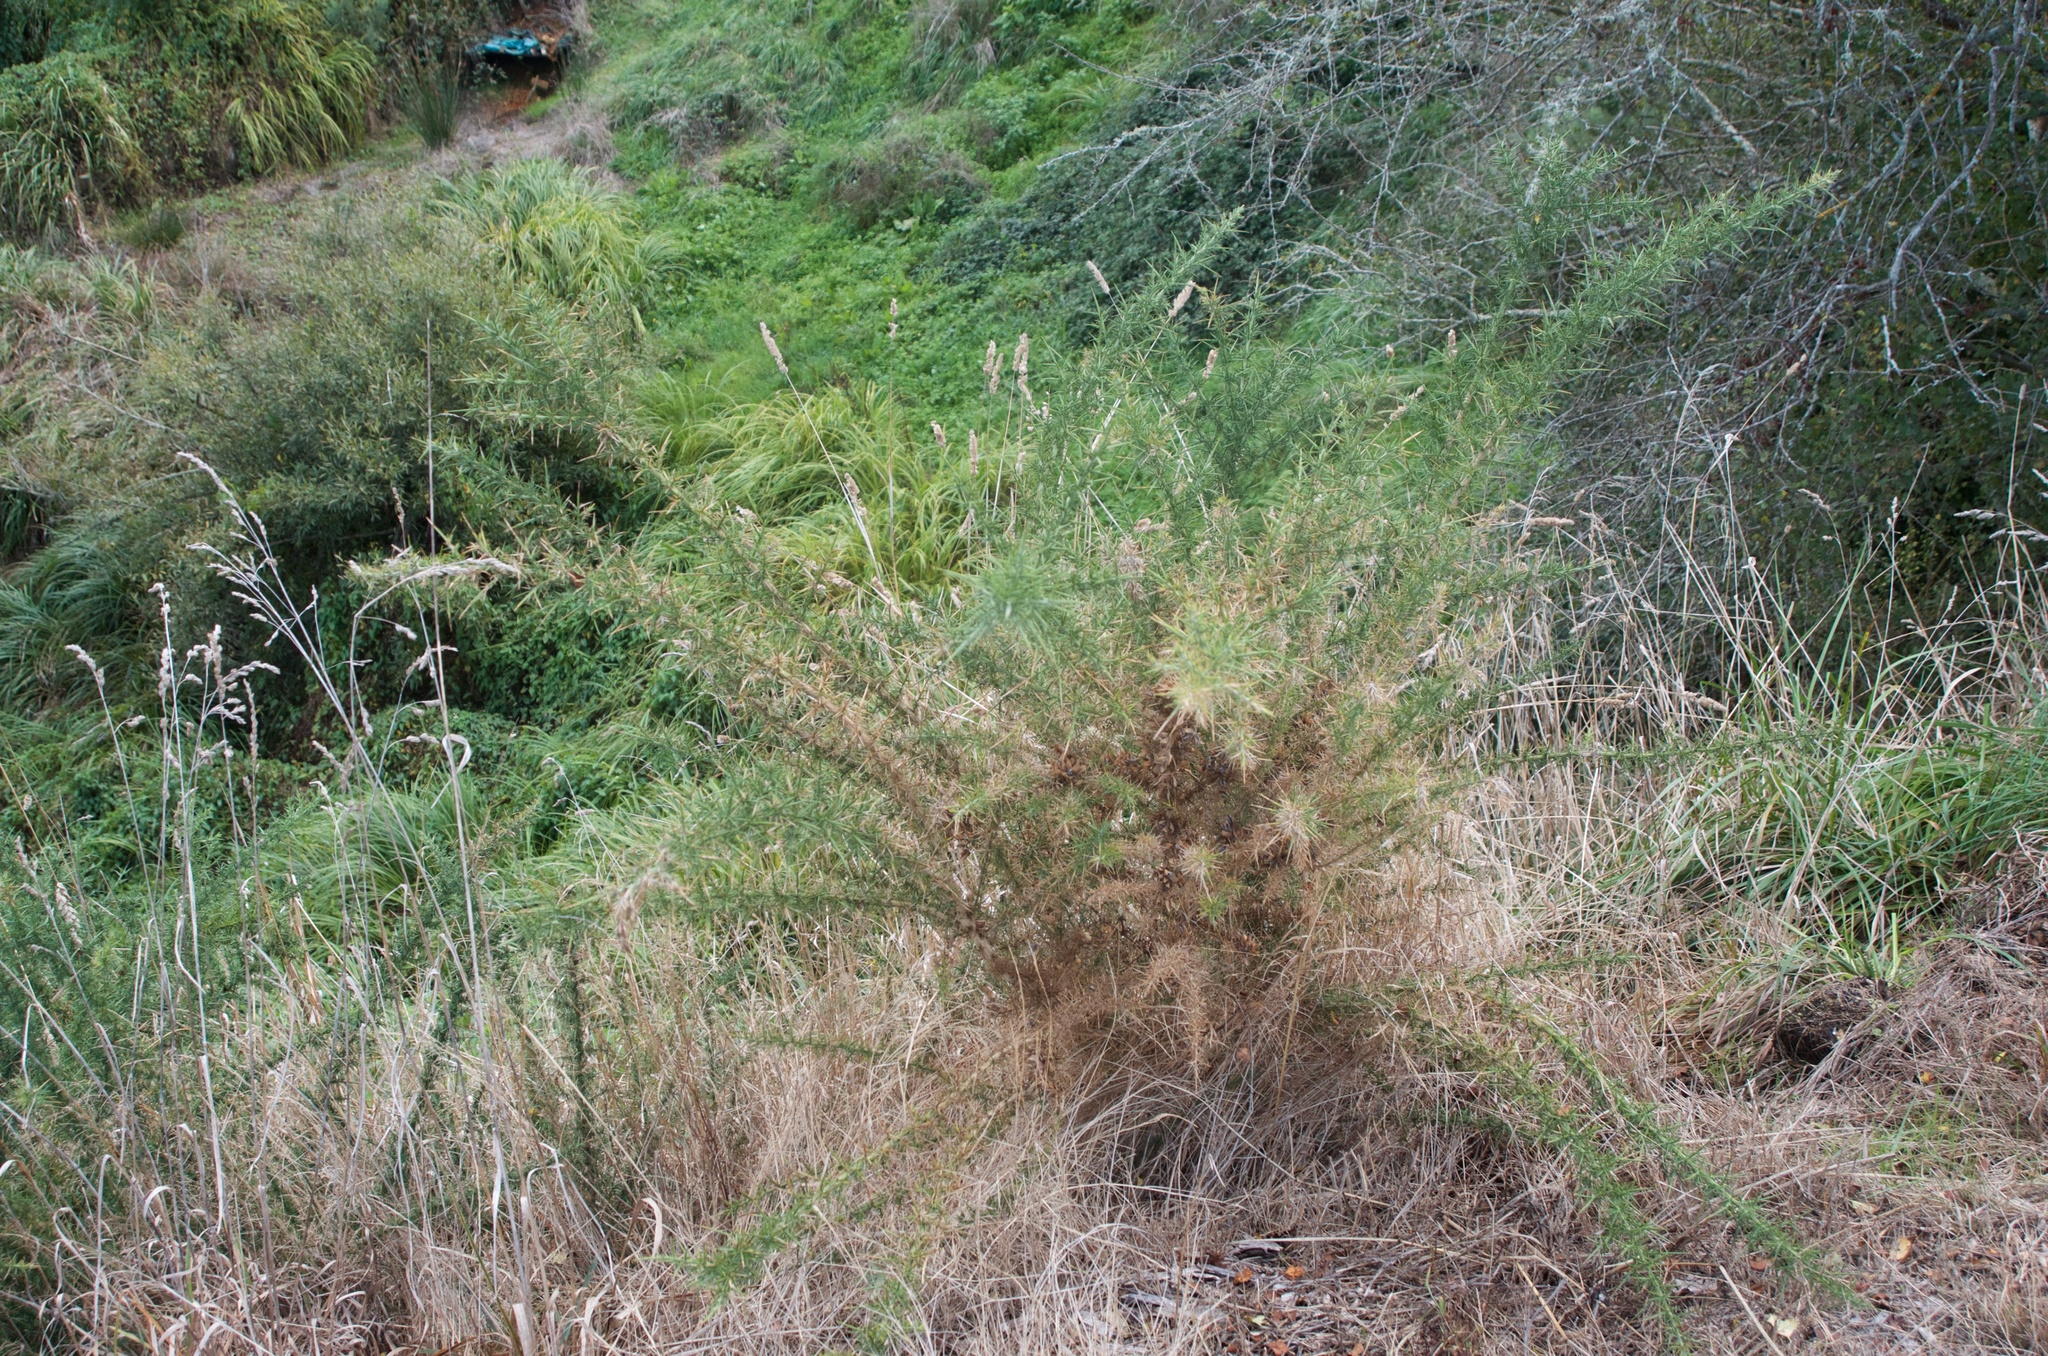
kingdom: Plantae
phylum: Tracheophyta
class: Magnoliopsida
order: Fabales
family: Fabaceae
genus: Ulex
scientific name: Ulex europaeus
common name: Common gorse
